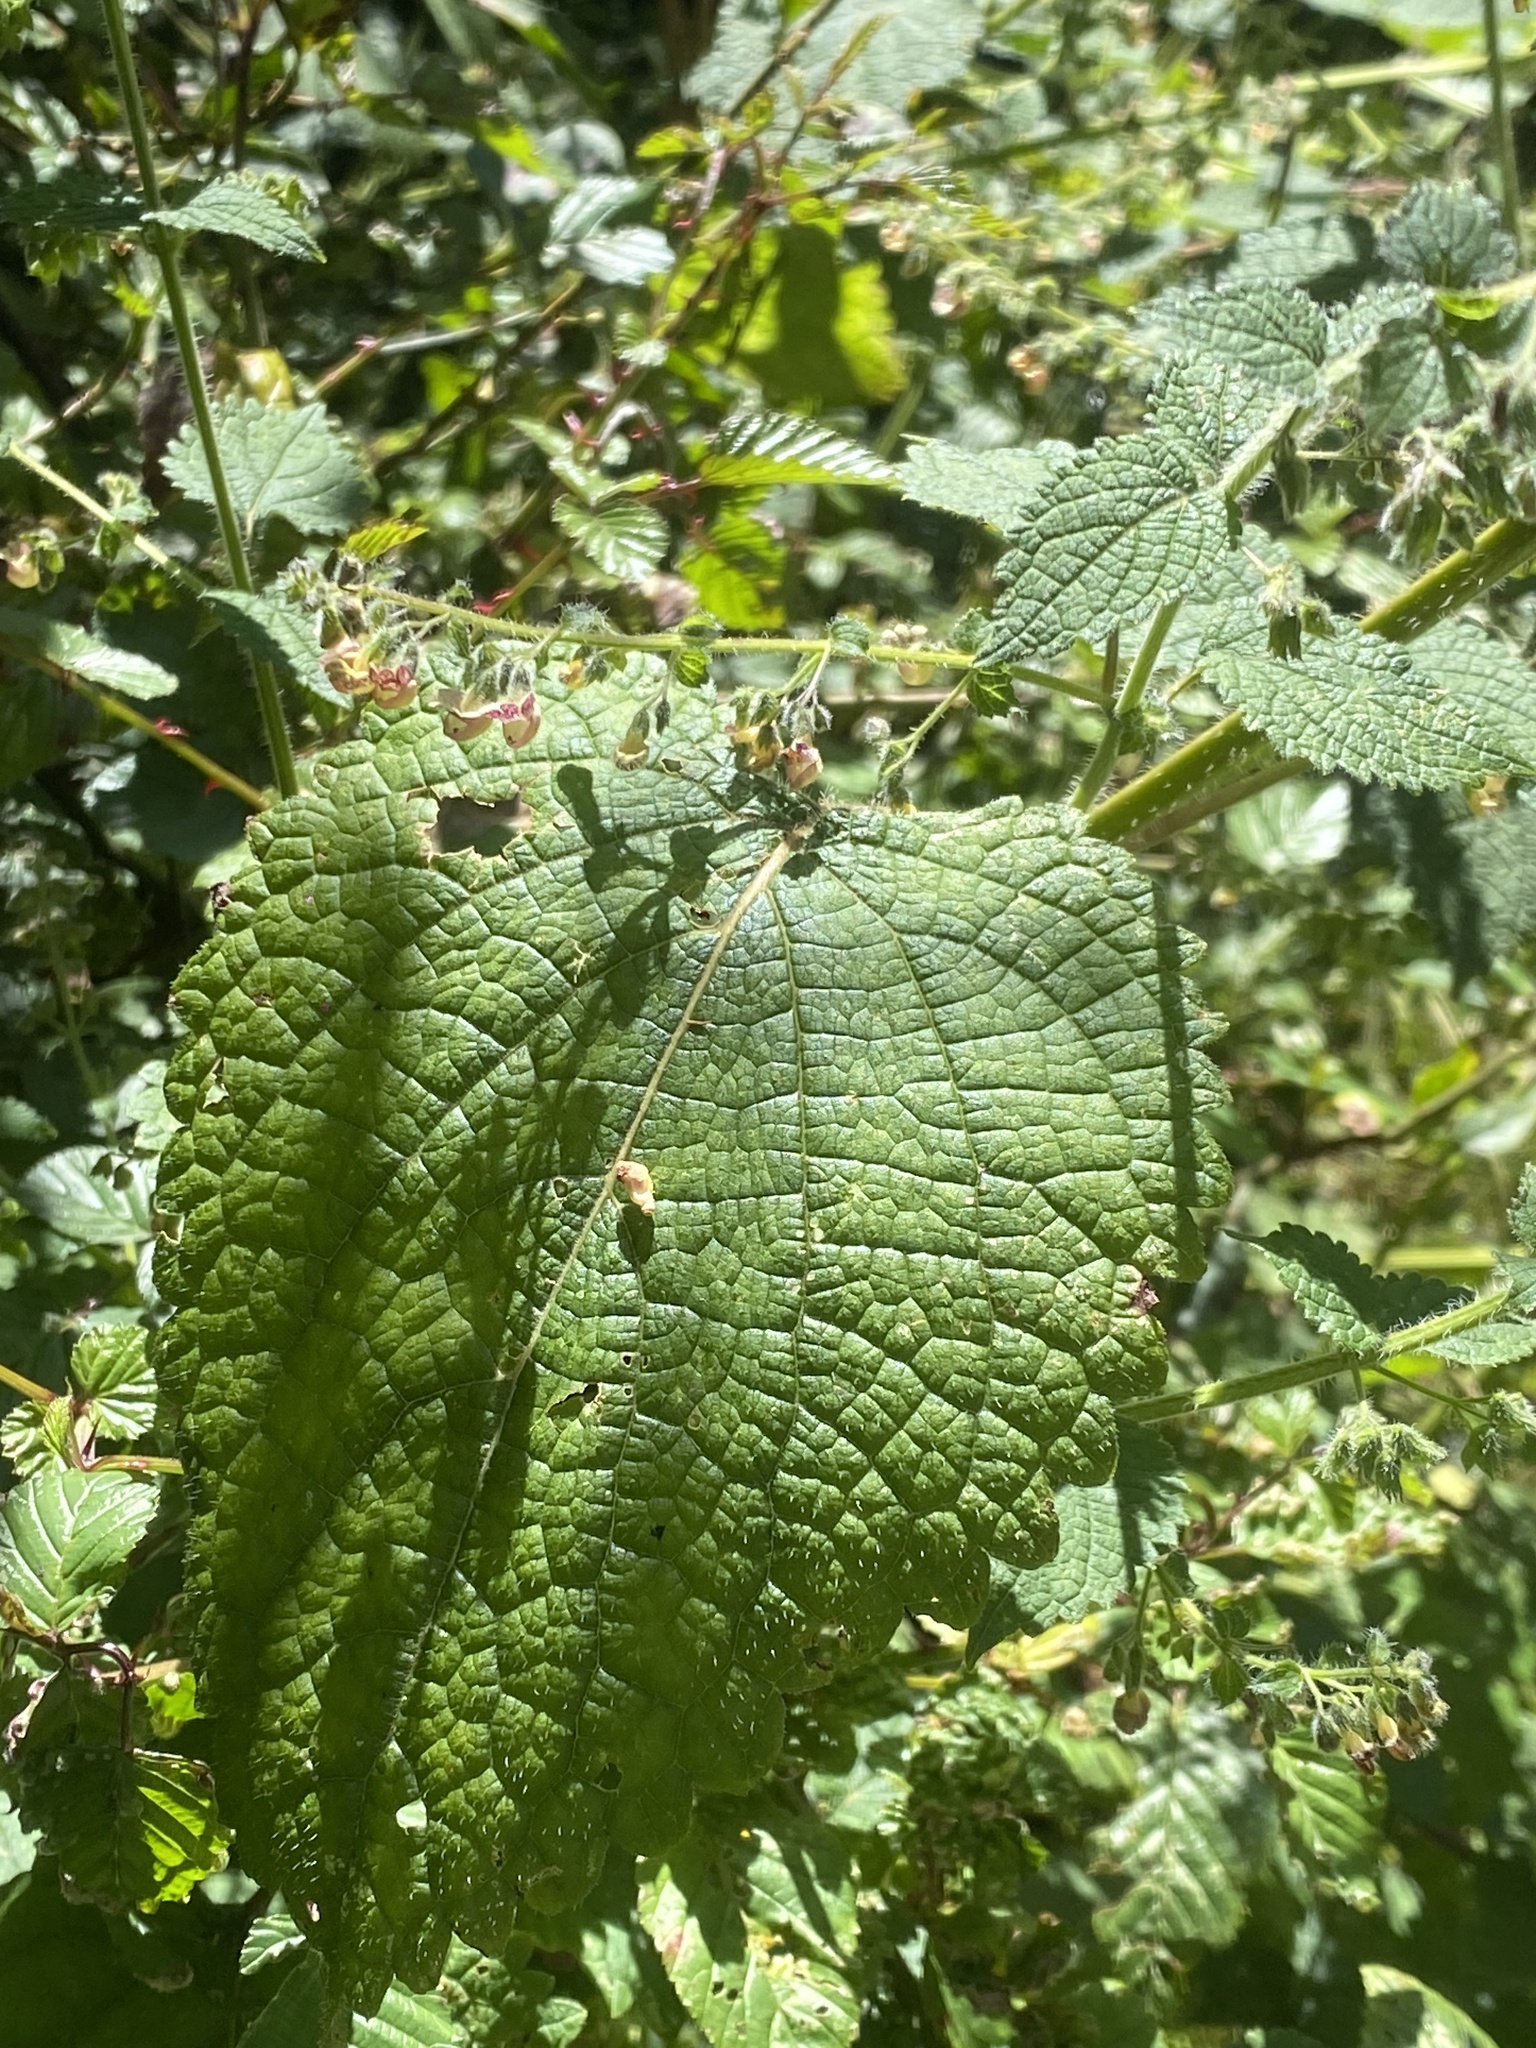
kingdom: Plantae
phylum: Tracheophyta
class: Magnoliopsida
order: Lamiales
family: Lamiaceae
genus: Isodon
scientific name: Isodon sculponeatus
